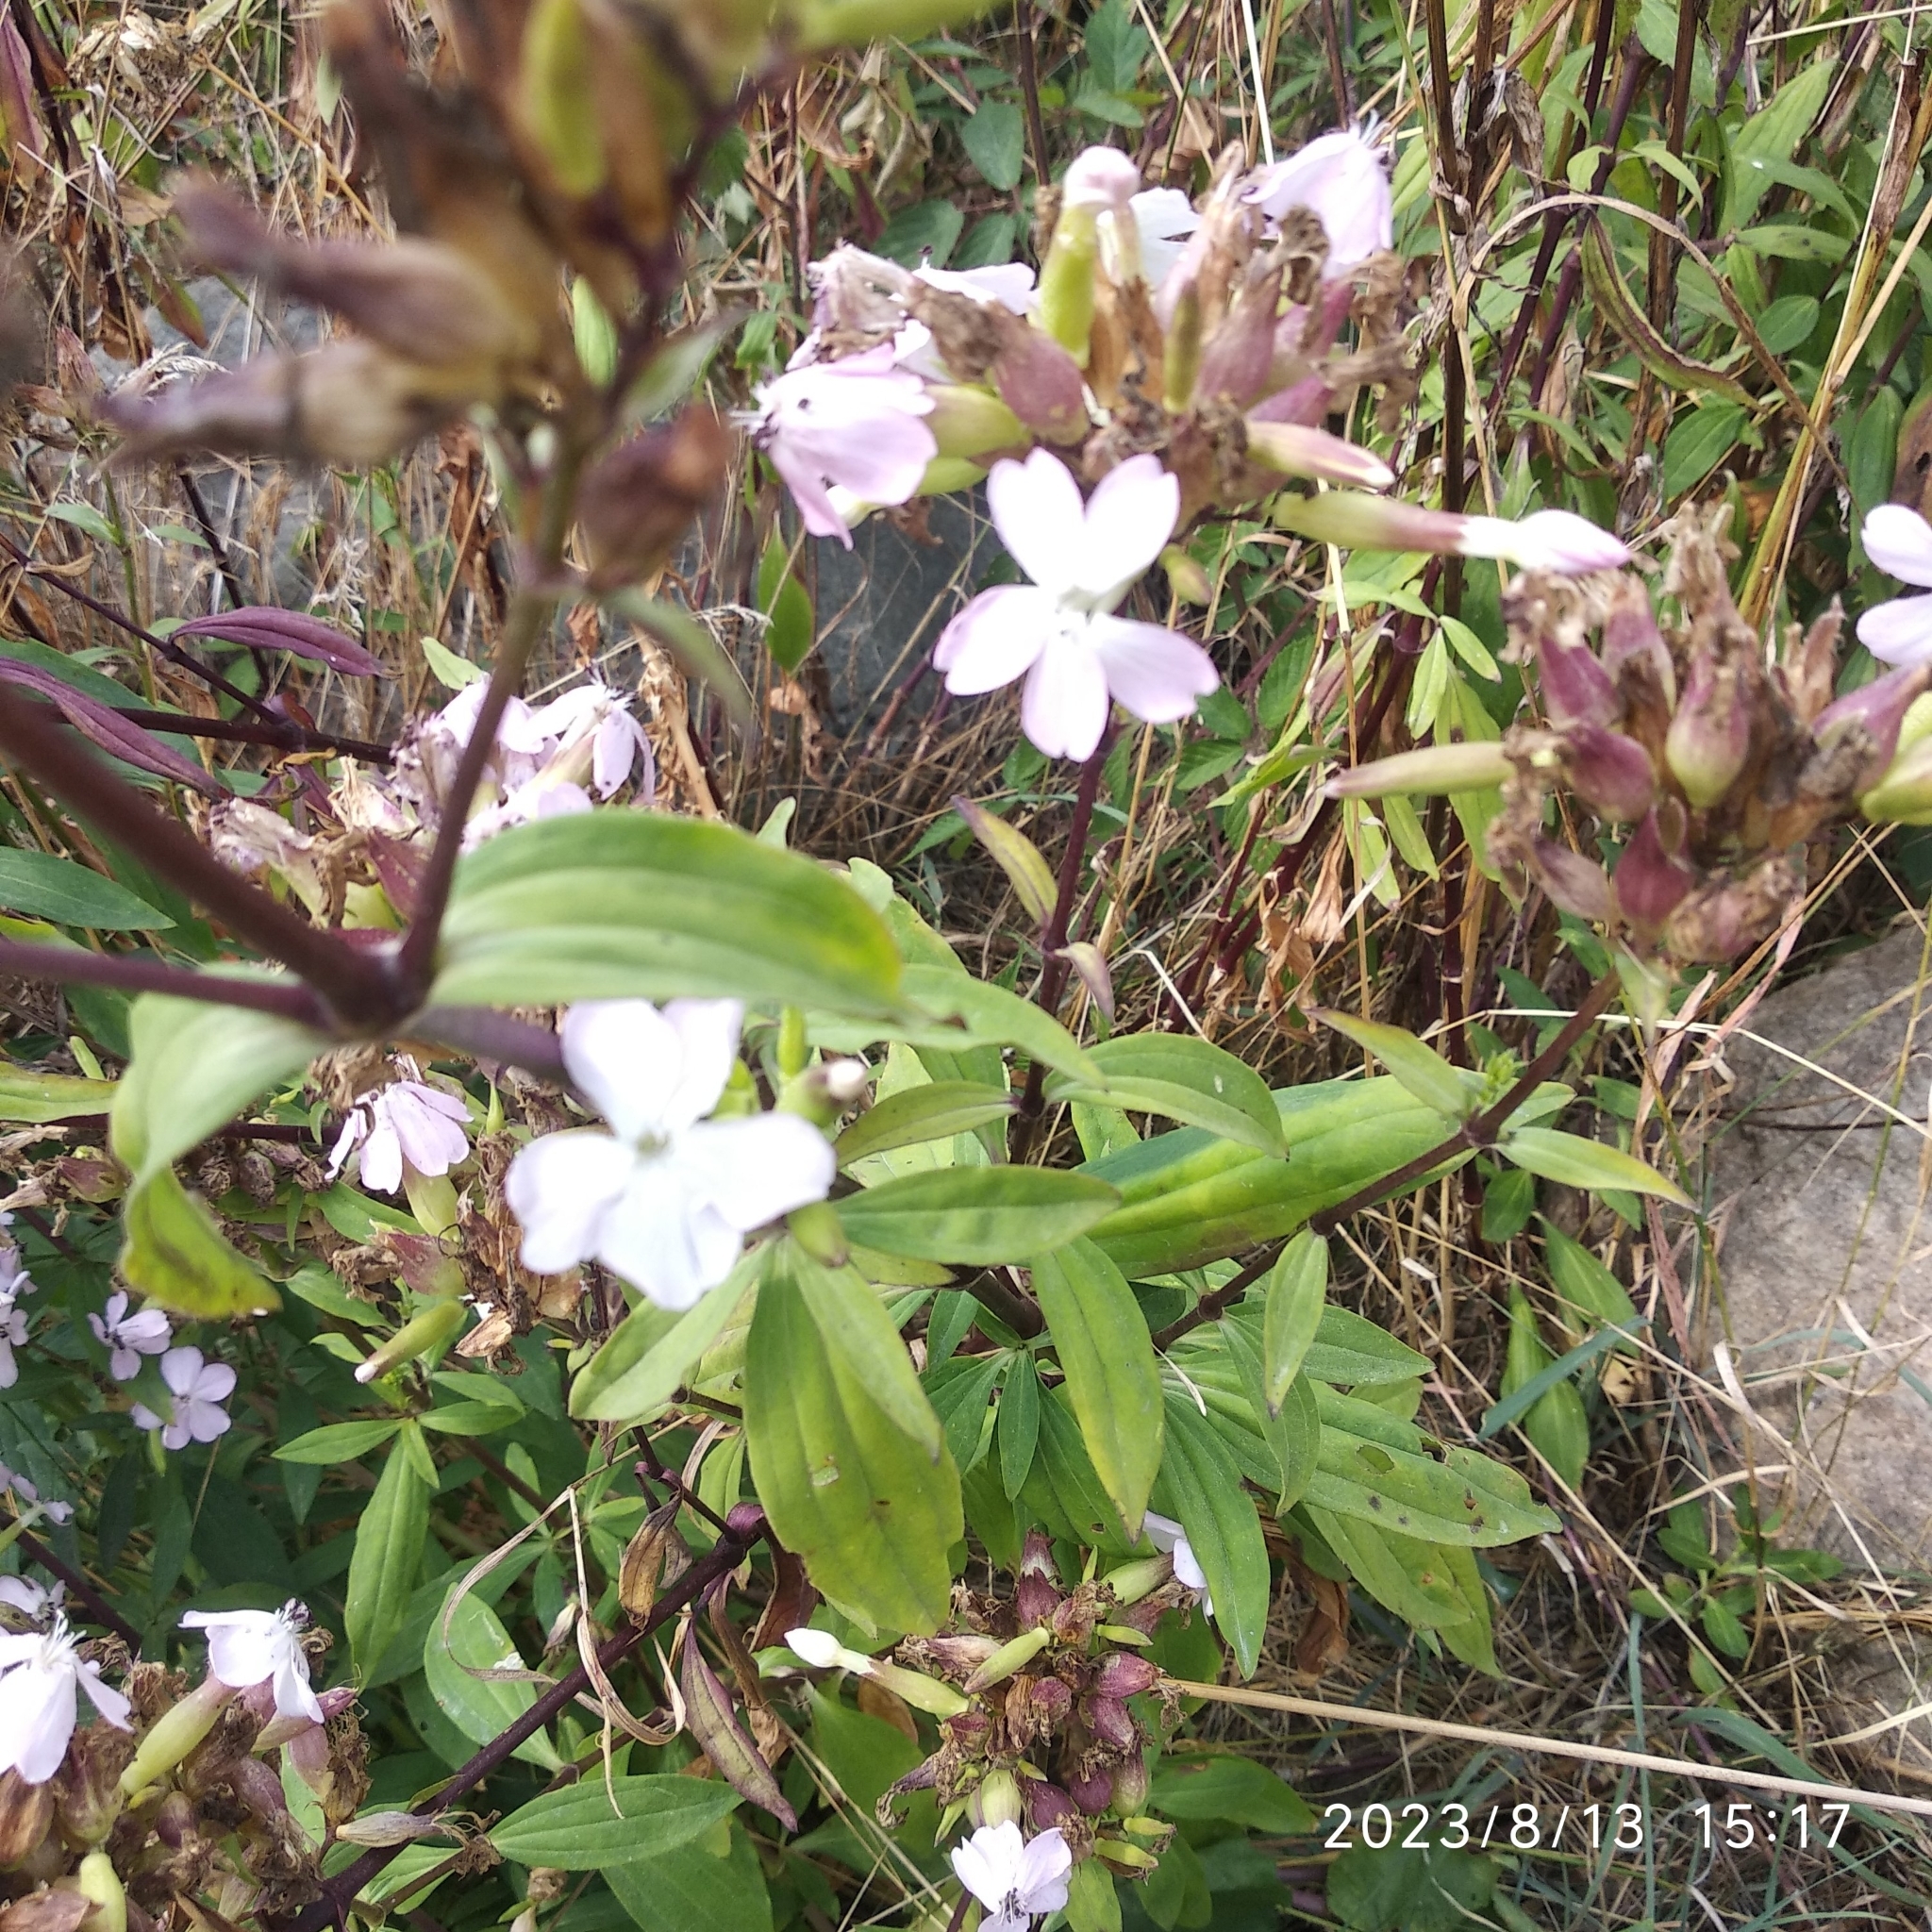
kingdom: Plantae
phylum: Tracheophyta
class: Magnoliopsida
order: Caryophyllales
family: Caryophyllaceae
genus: Saponaria
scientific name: Saponaria officinalis
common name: Soapwort
